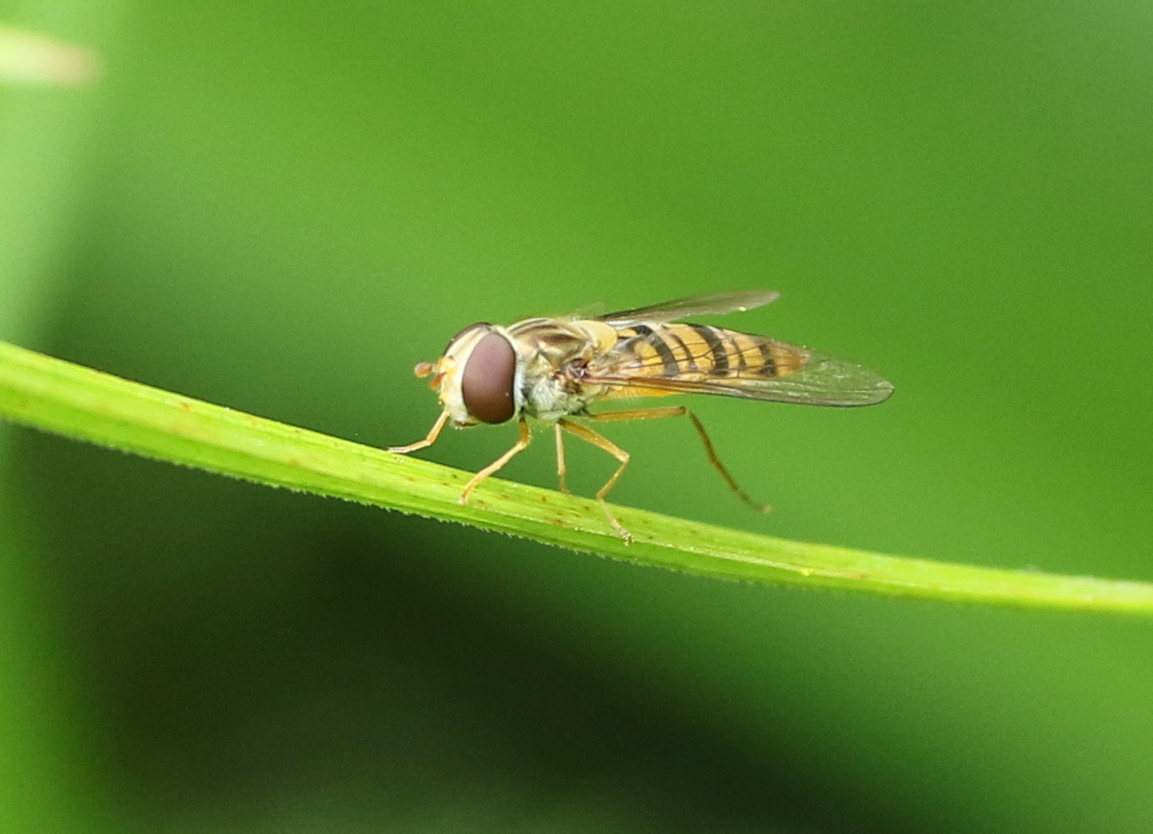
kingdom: Animalia
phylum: Arthropoda
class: Insecta
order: Diptera
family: Syrphidae
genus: Episyrphus
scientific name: Episyrphus balteatus
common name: Marmalade hoverfly
